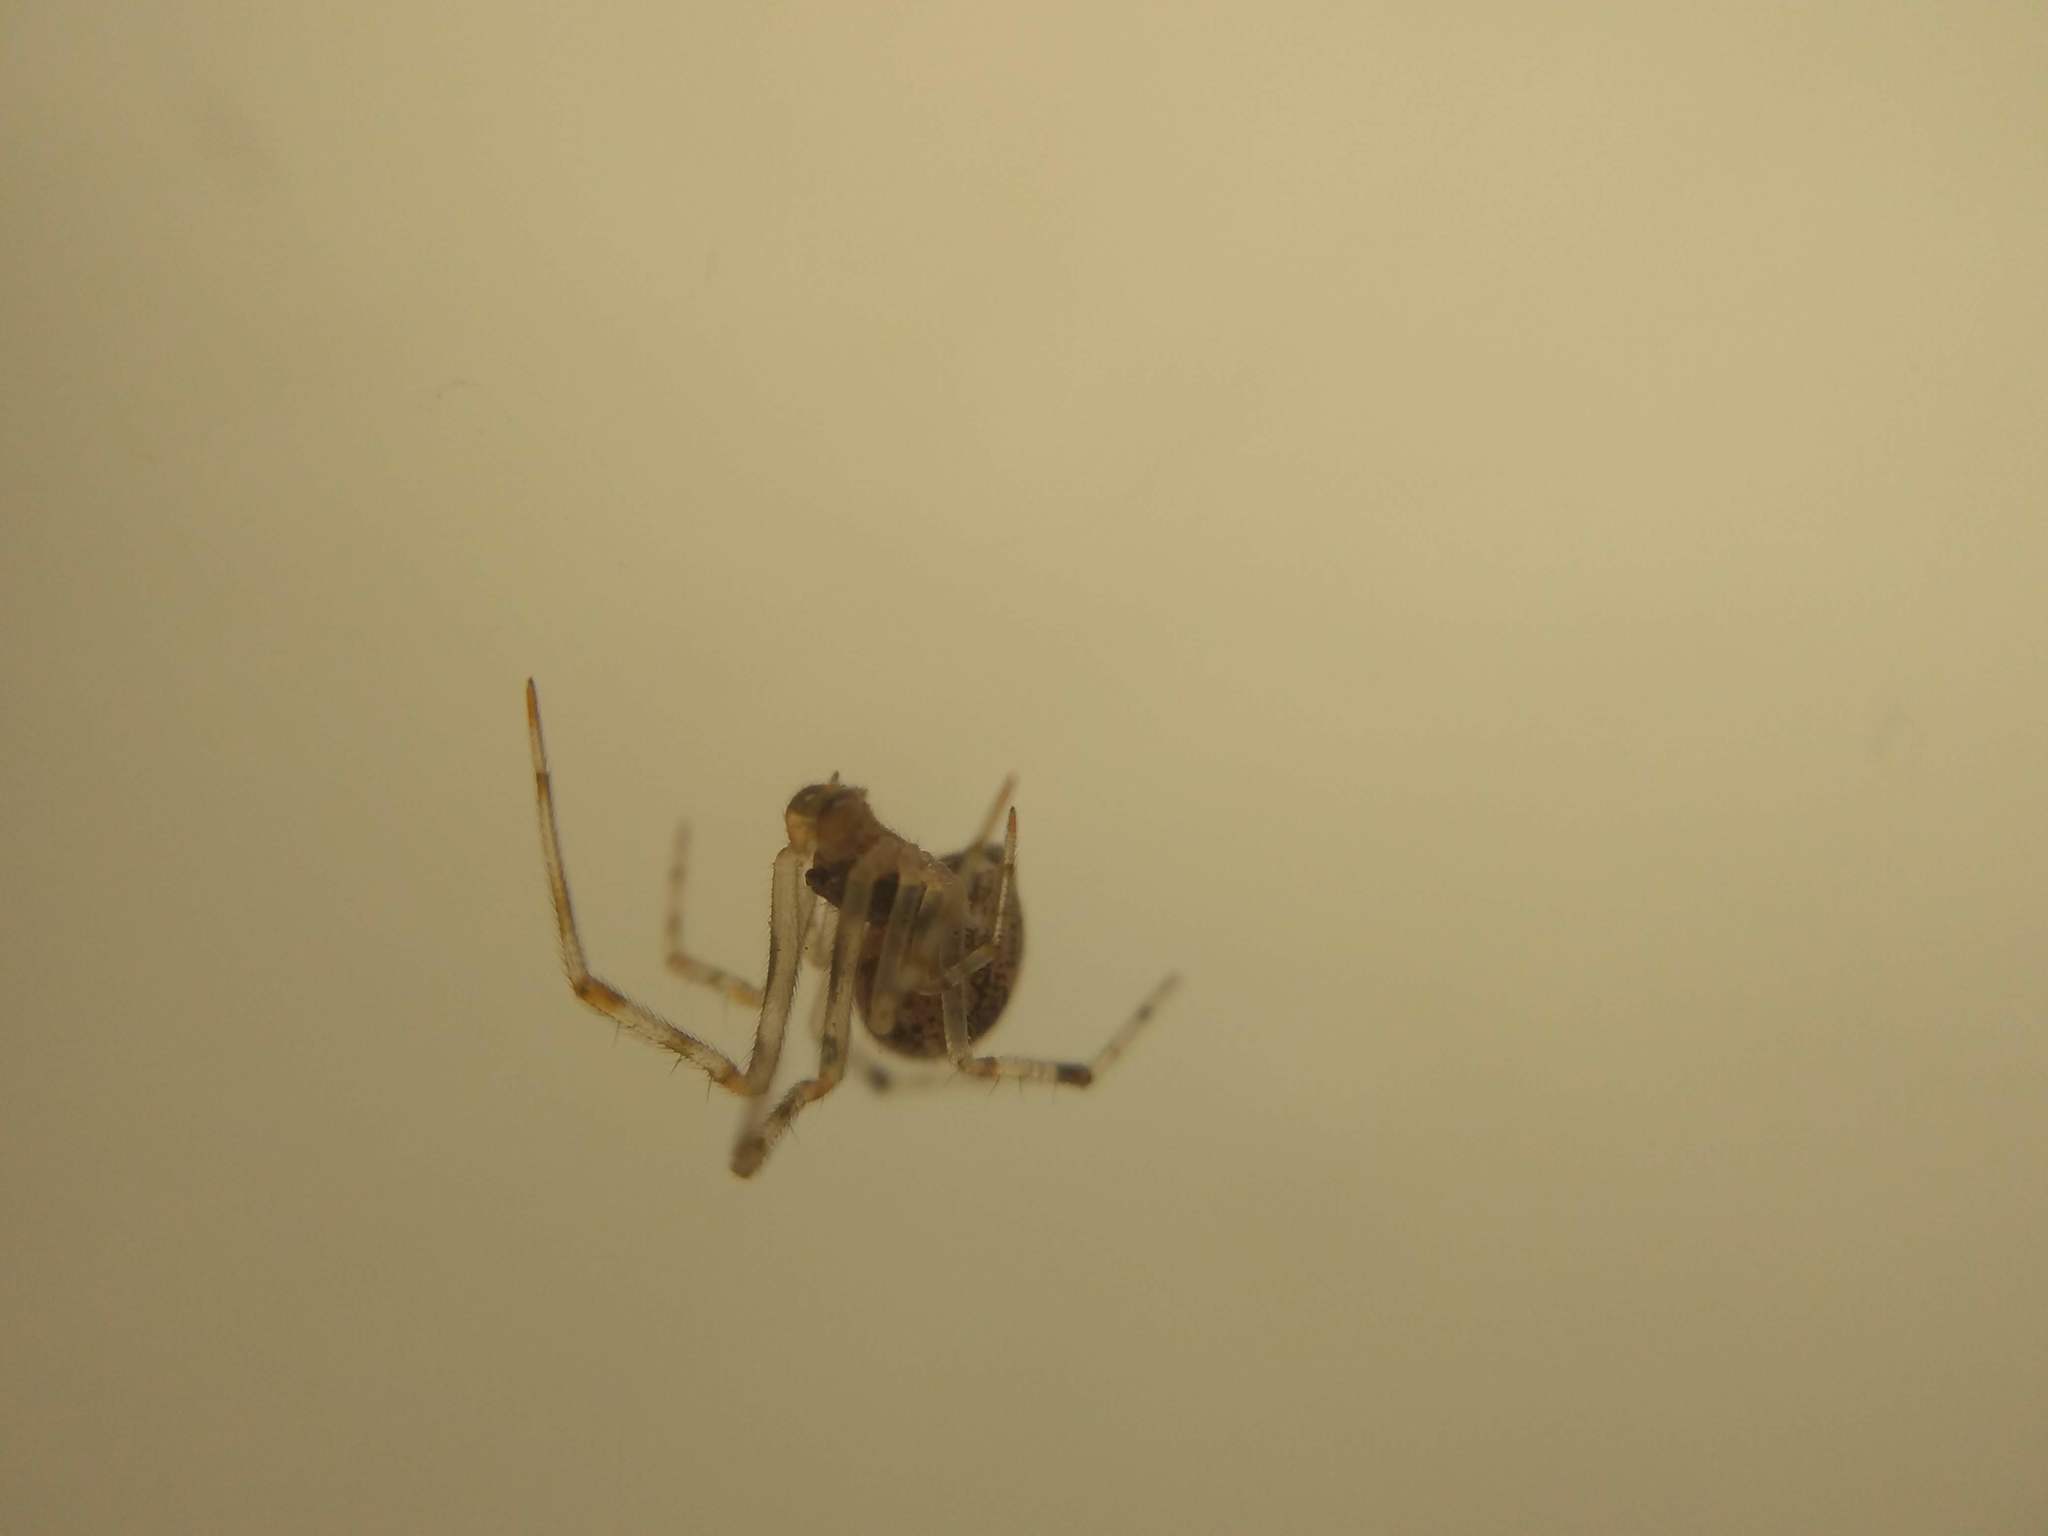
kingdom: Animalia
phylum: Arthropoda
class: Arachnida
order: Araneae
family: Theridiidae
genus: Parasteatoda
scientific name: Parasteatoda tepidariorum
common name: Common house spider
